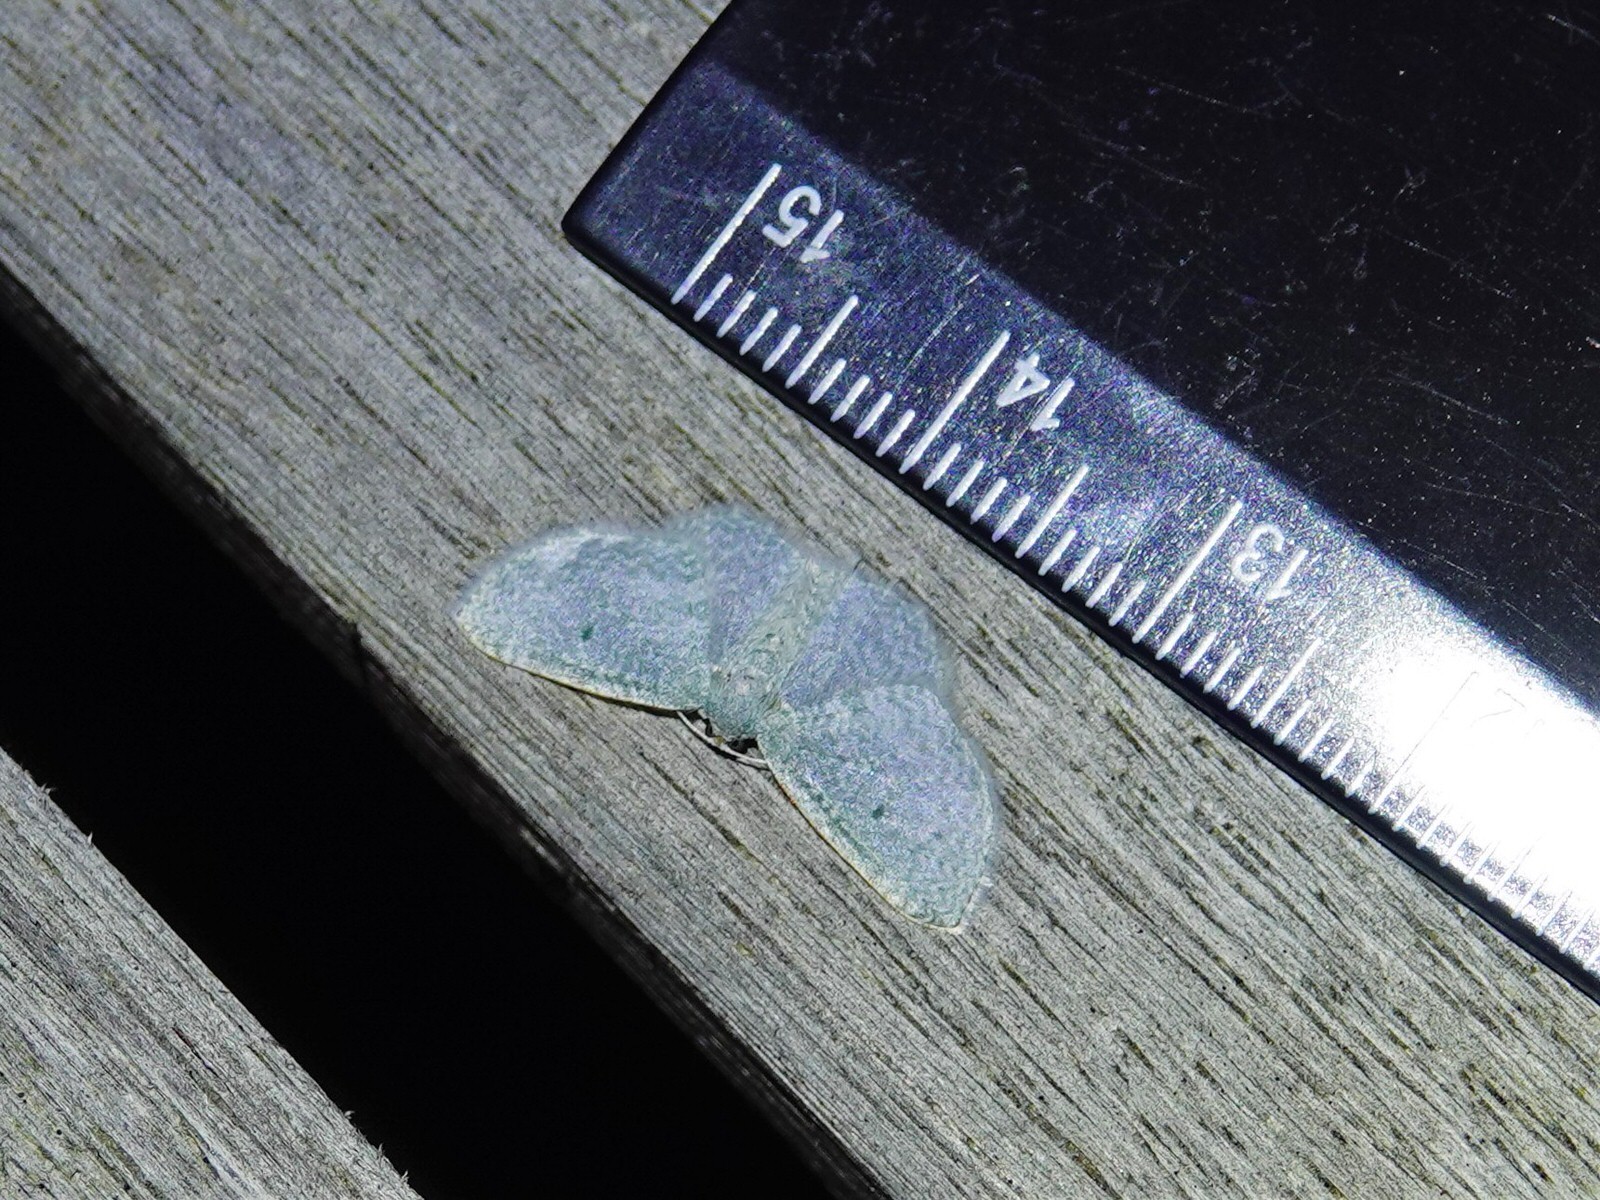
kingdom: Animalia
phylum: Arthropoda
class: Insecta
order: Lepidoptera
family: Geometridae
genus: Poecilasthena
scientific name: Poecilasthena pulchraria
